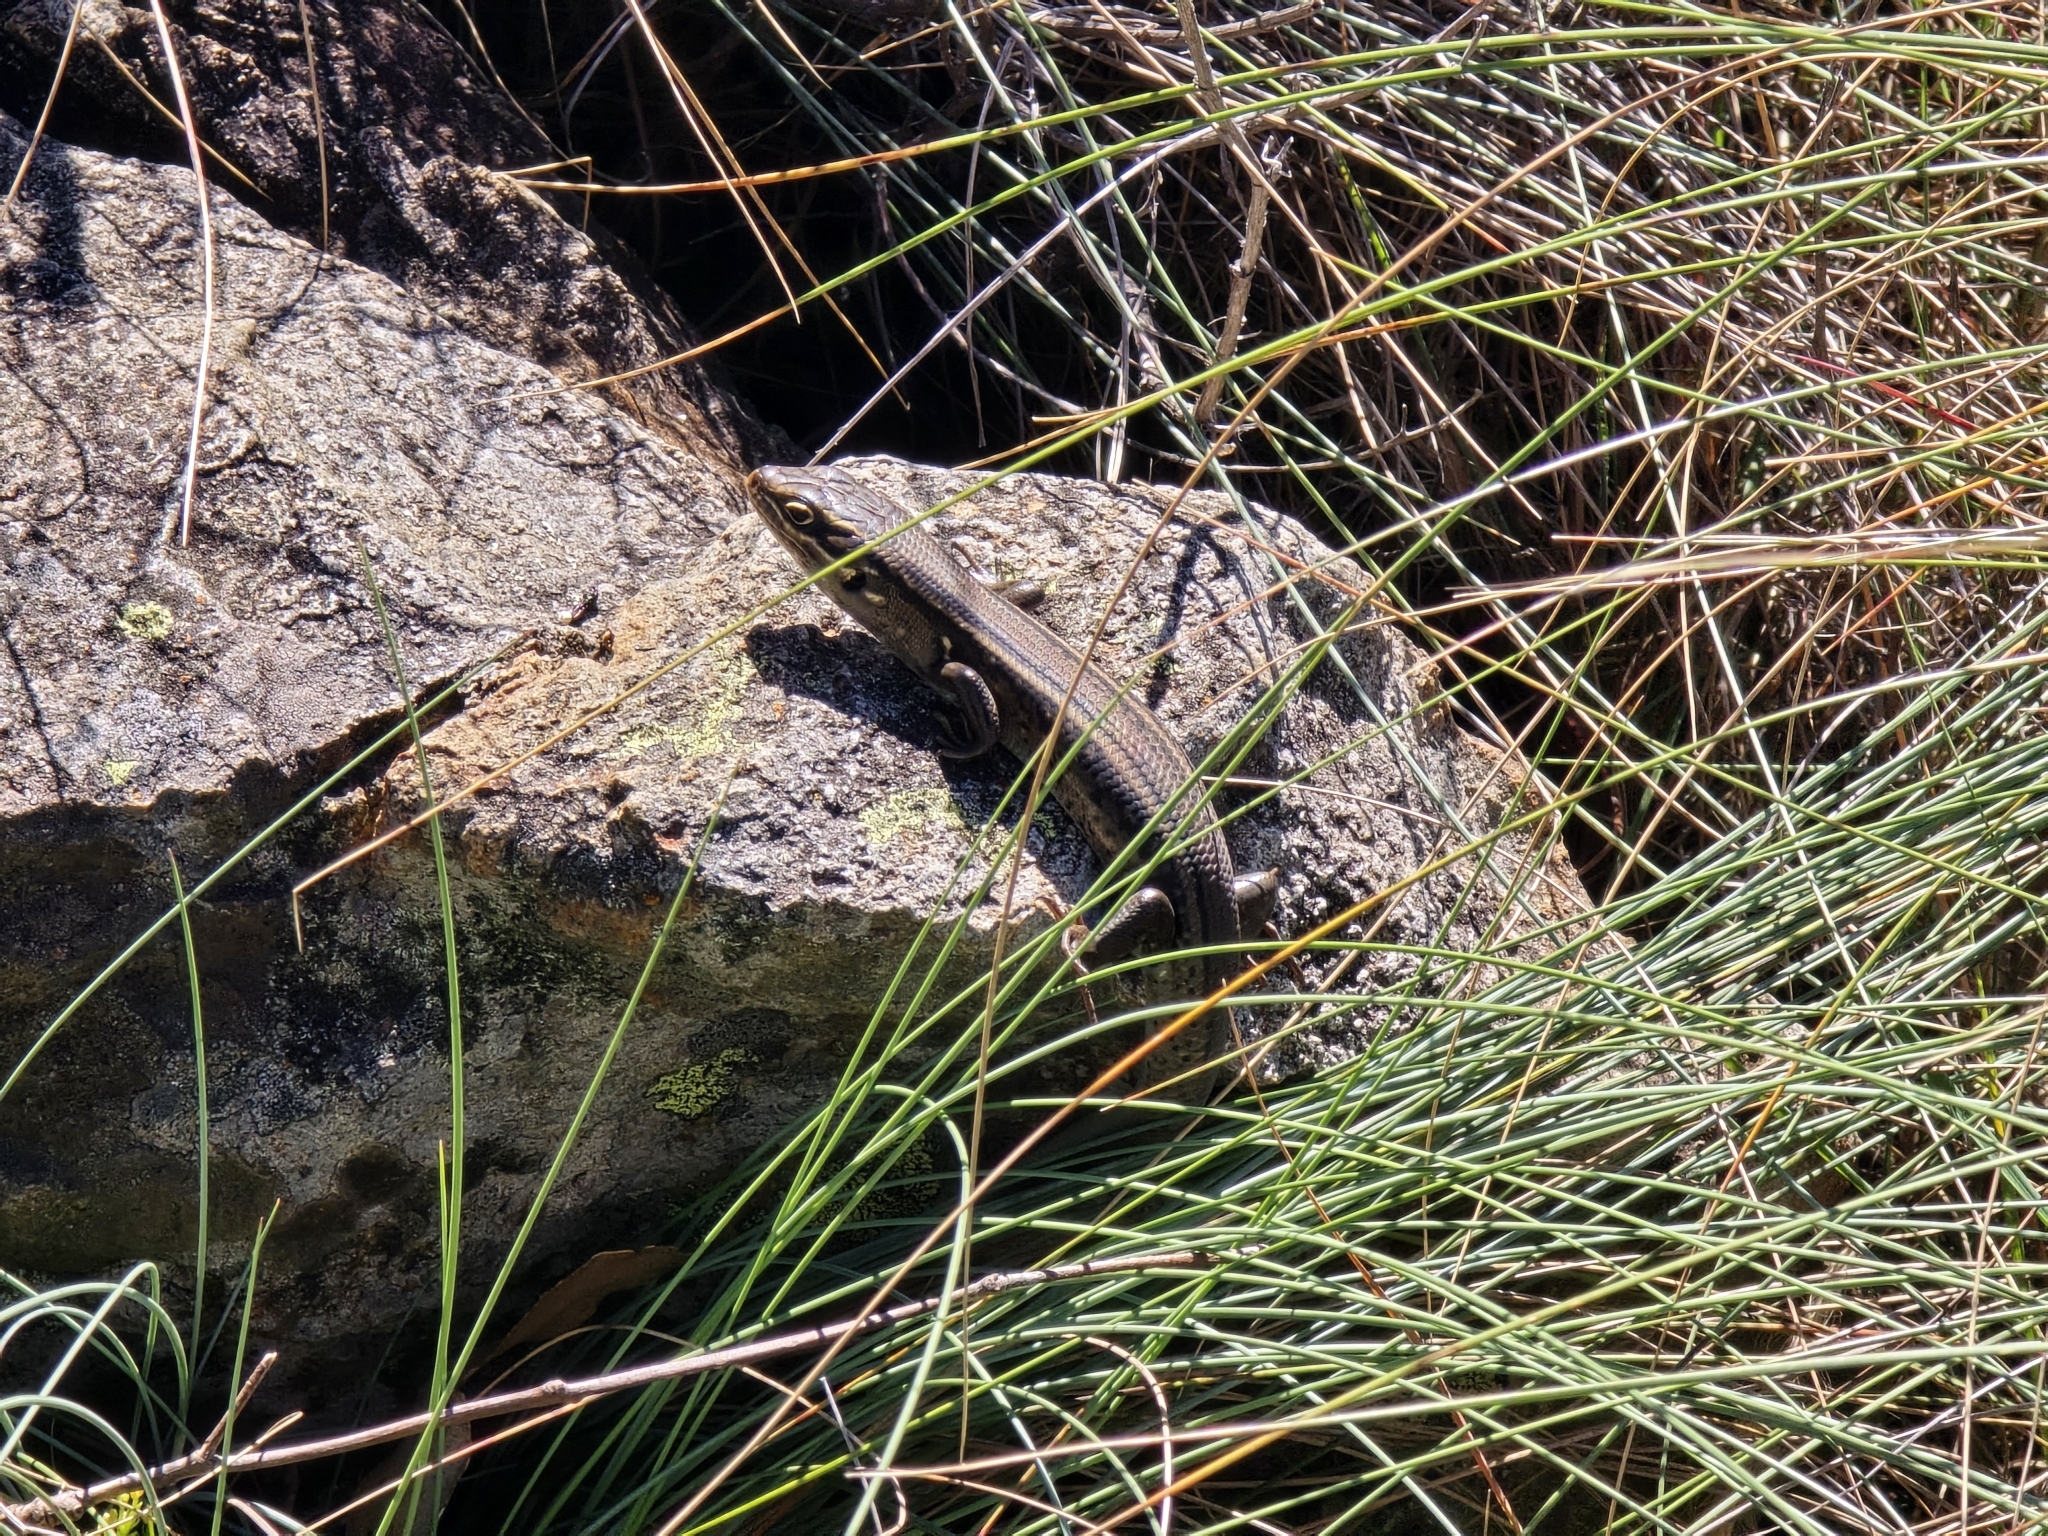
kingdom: Animalia
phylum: Chordata
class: Squamata
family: Scincidae
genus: Liopholis
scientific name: Liopholis whitii
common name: White's rock-skink
